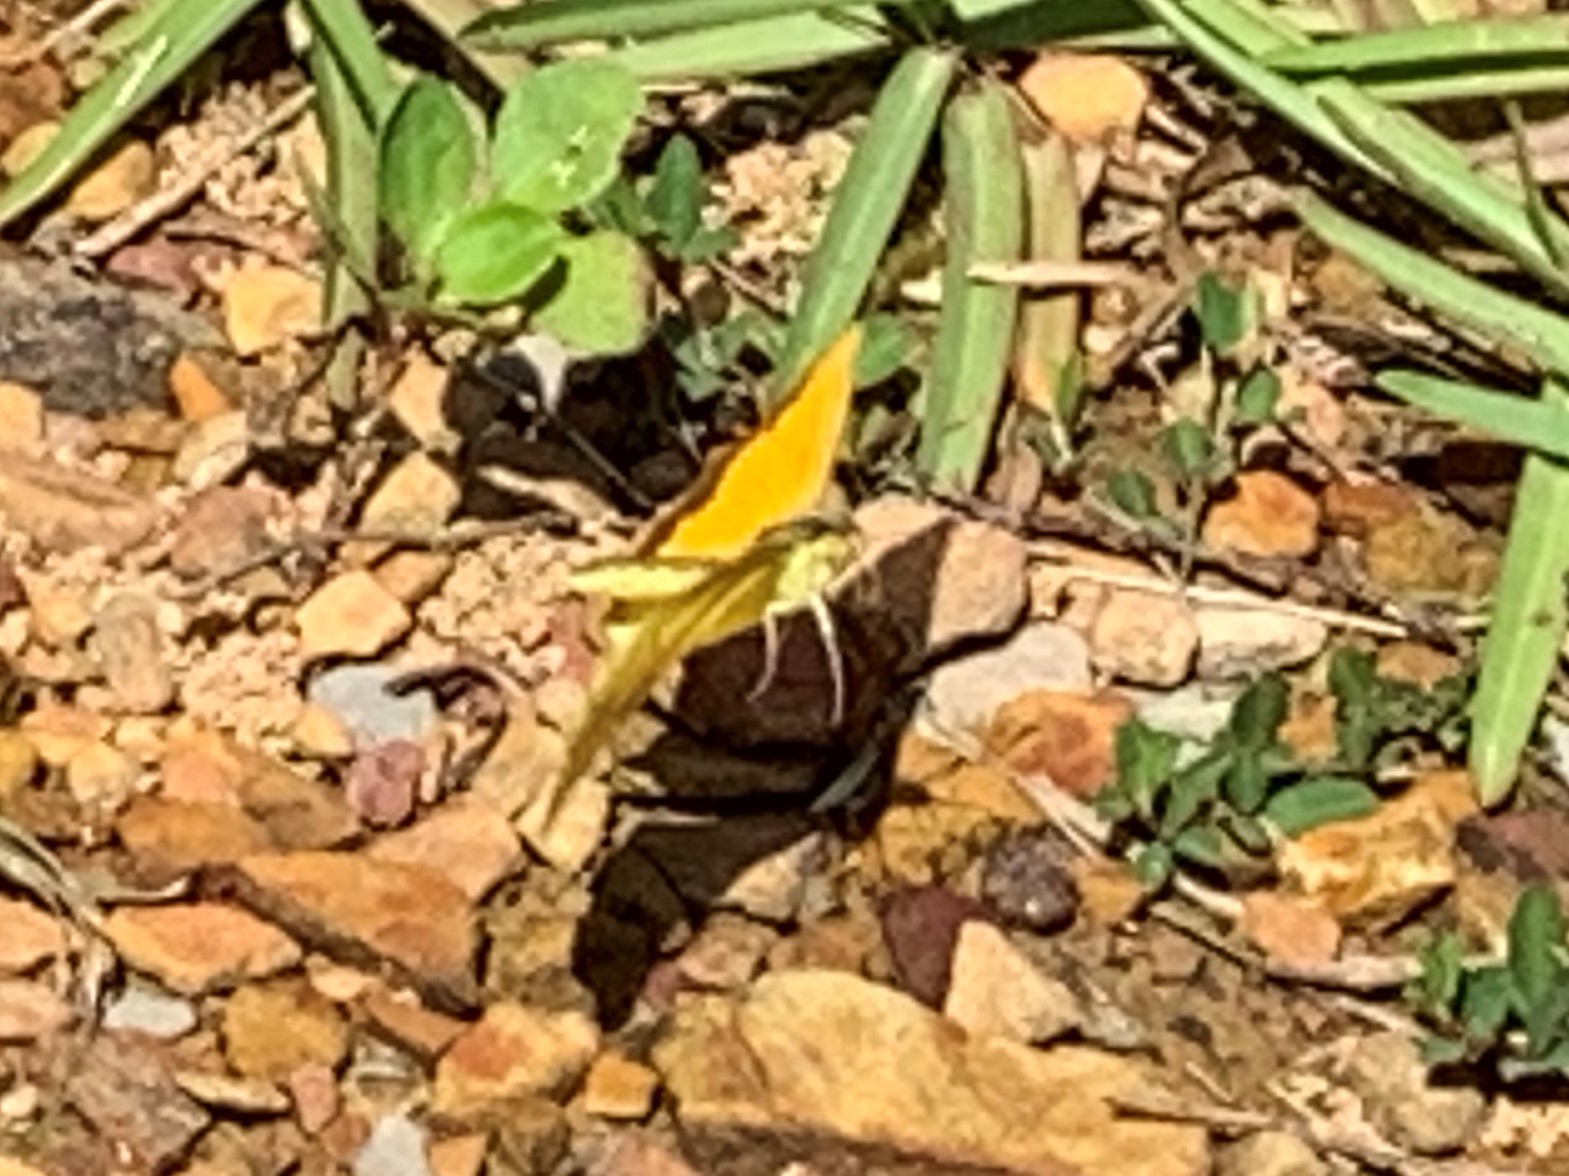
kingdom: Animalia
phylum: Arthropoda
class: Insecta
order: Lepidoptera
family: Pieridae
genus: Abaeis
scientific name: Abaeis nicippe
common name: Sleepy orange
